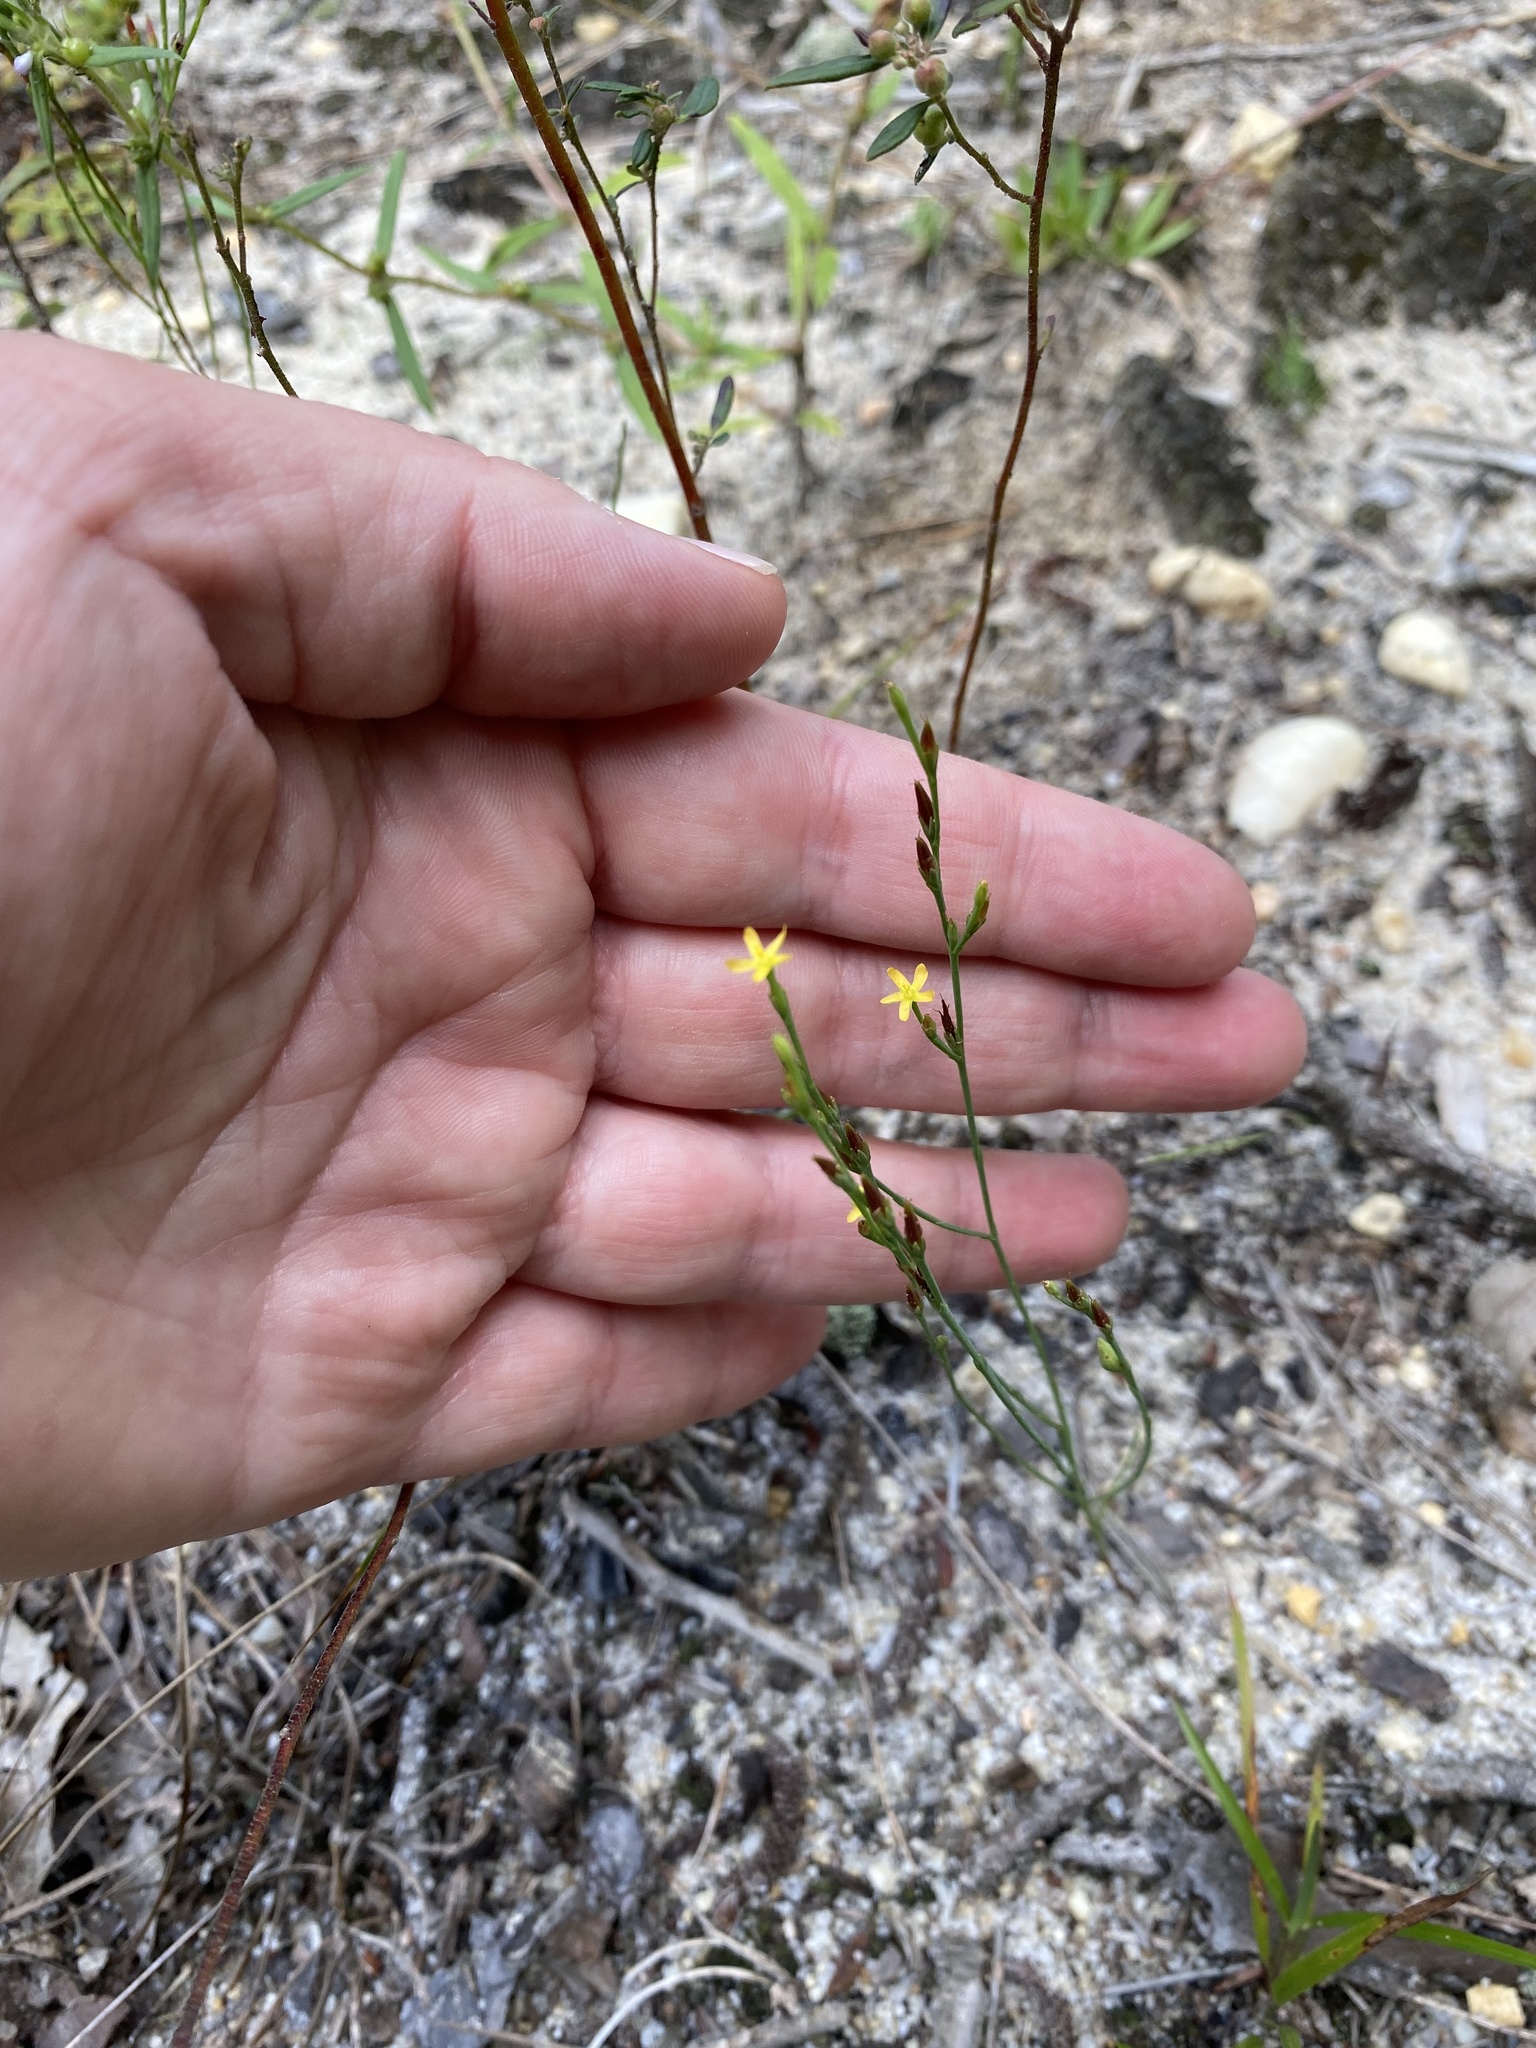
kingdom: Plantae
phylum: Tracheophyta
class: Magnoliopsida
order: Malpighiales
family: Hypericaceae
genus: Hypericum
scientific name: Hypericum gentianoides
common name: Gentian-leaved st. john's-wort
